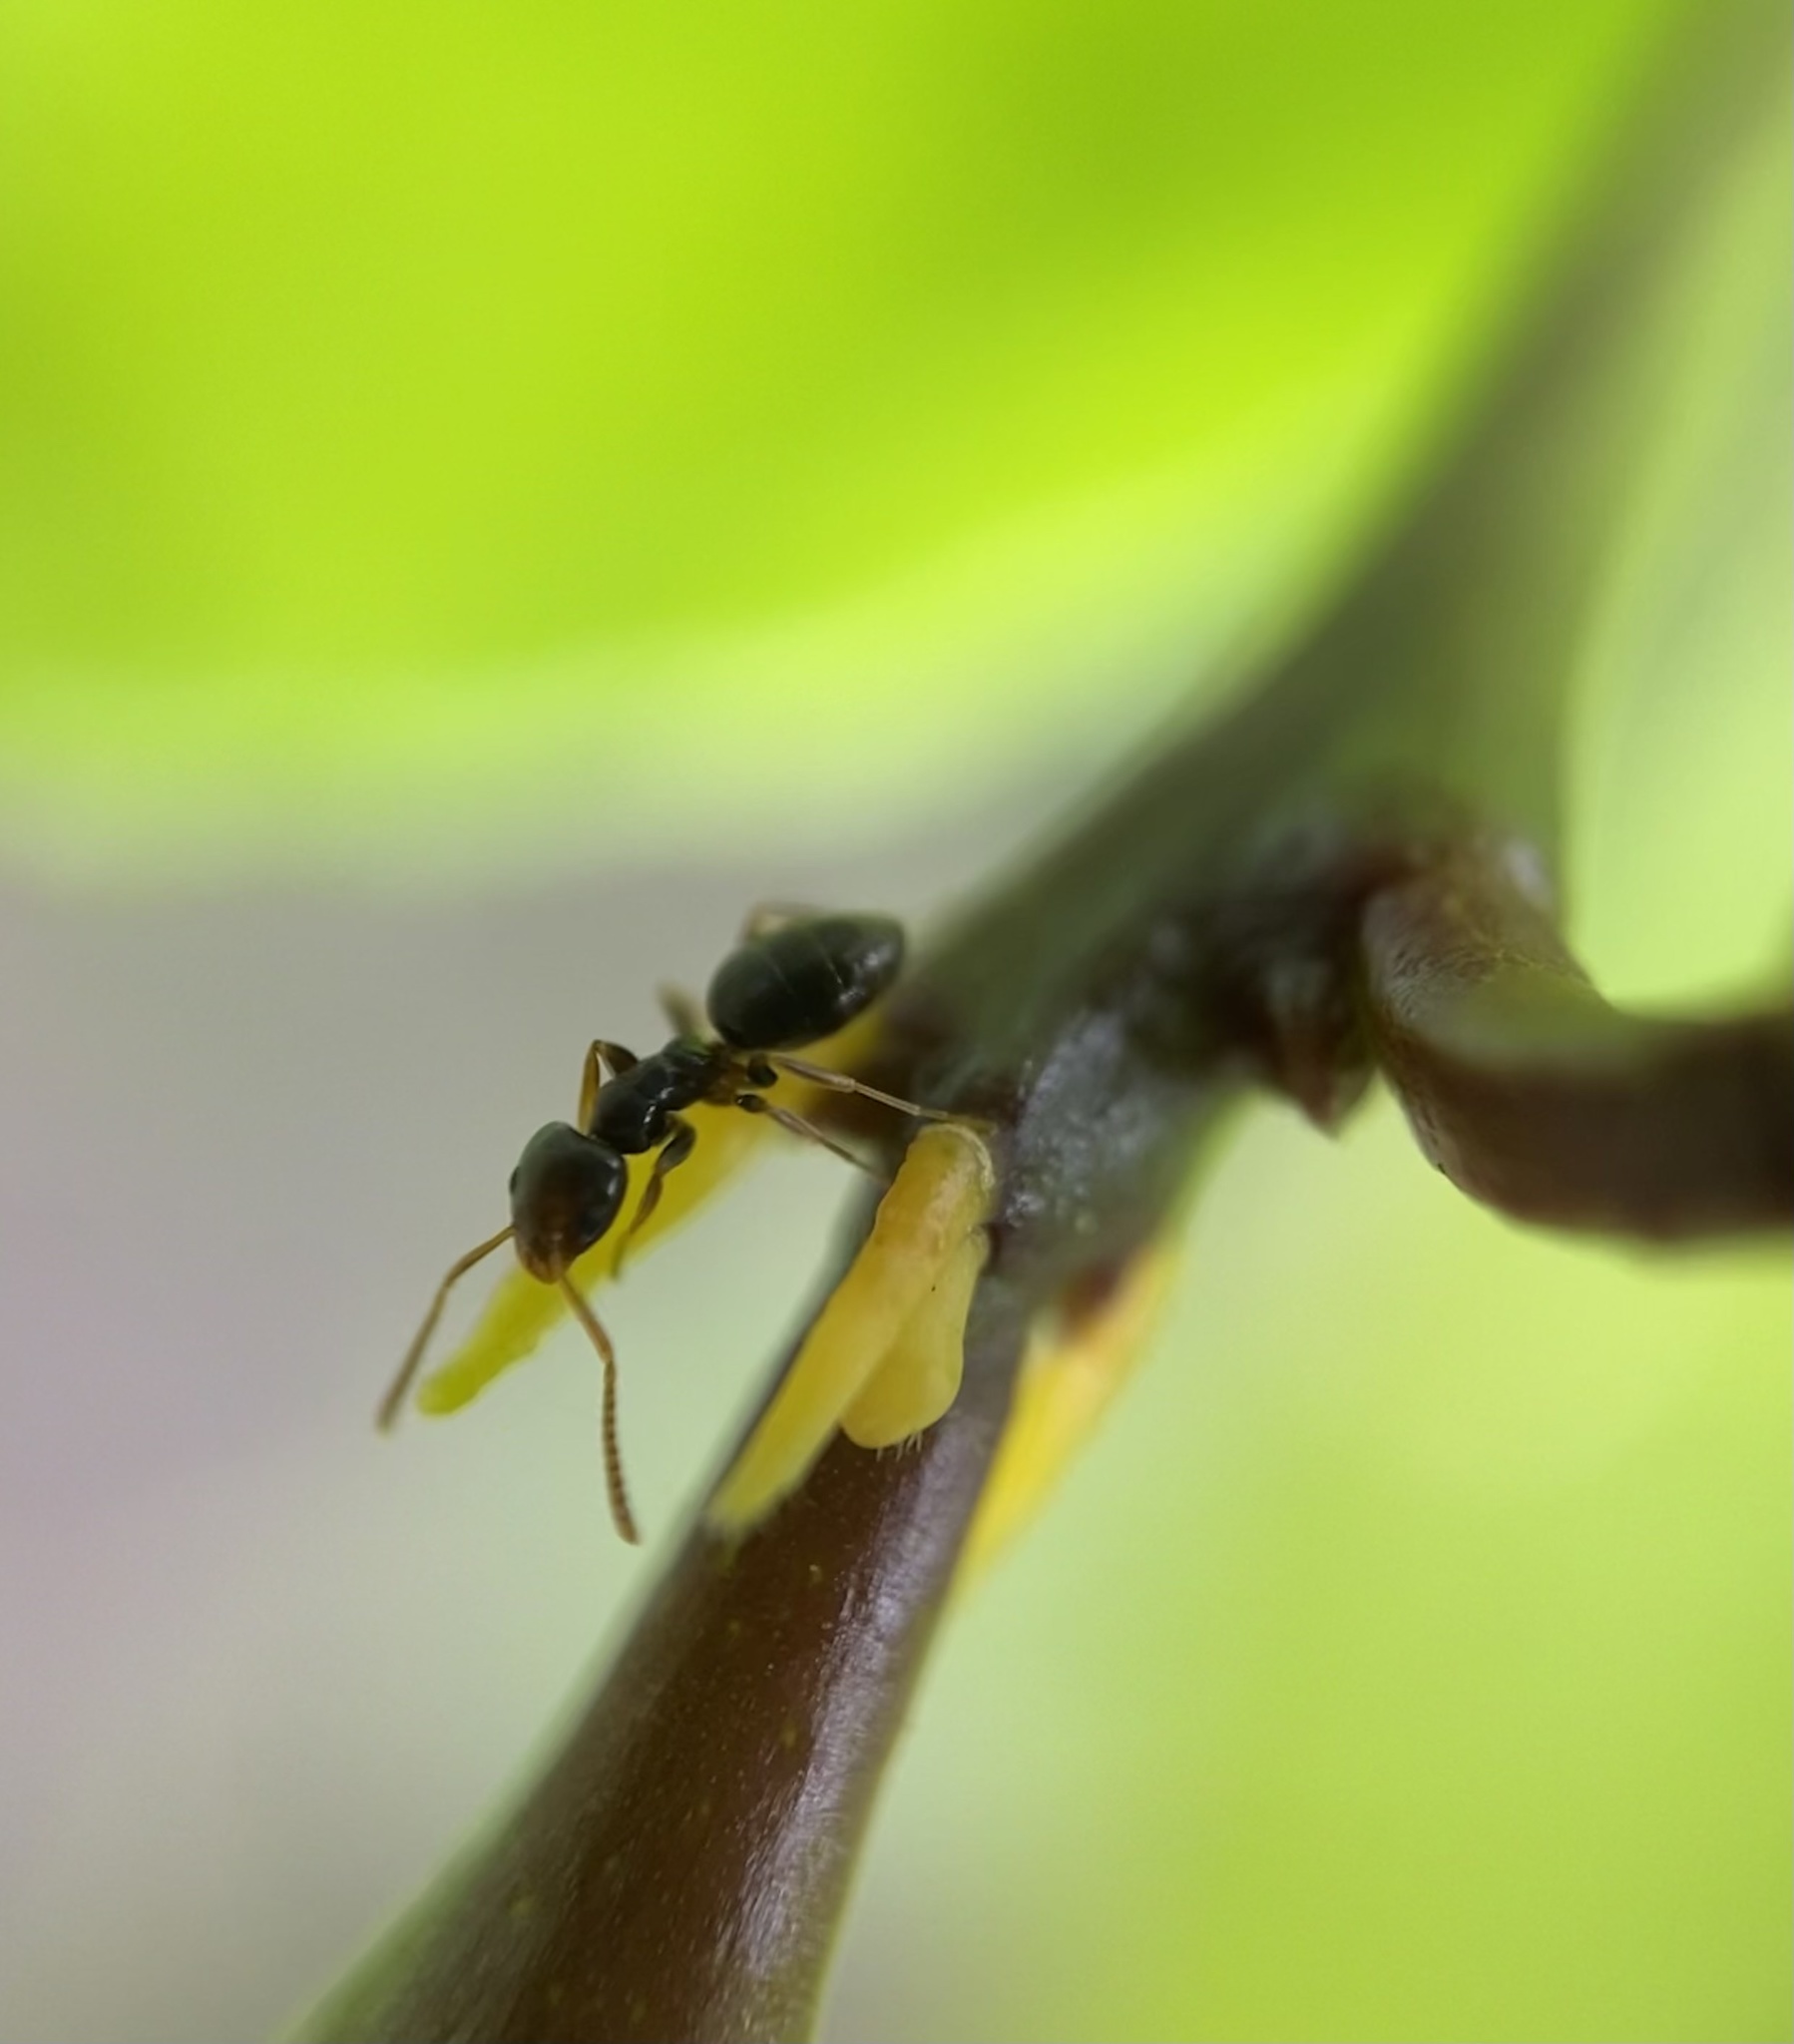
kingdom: Animalia
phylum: Arthropoda
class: Insecta
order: Hymenoptera
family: Formicidae
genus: Tapinoma
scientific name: Tapinoma sessile
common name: Odorous house ant
